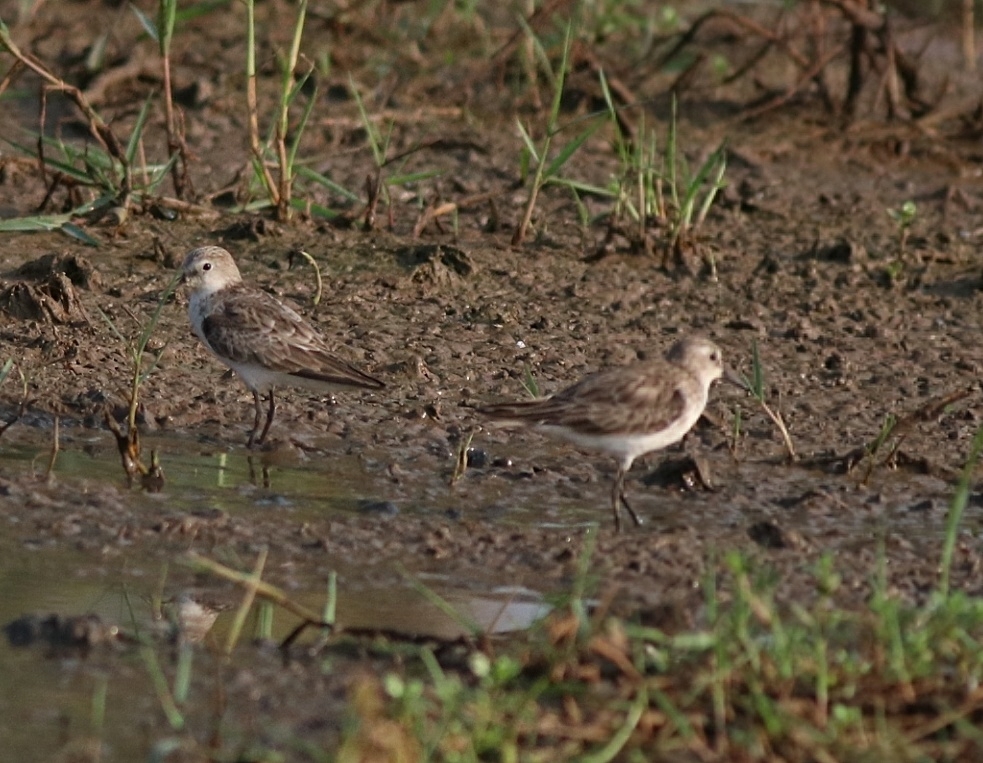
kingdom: Animalia
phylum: Chordata
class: Aves
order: Charadriiformes
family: Scolopacidae
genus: Calidris
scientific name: Calidris minuta
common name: Little stint
